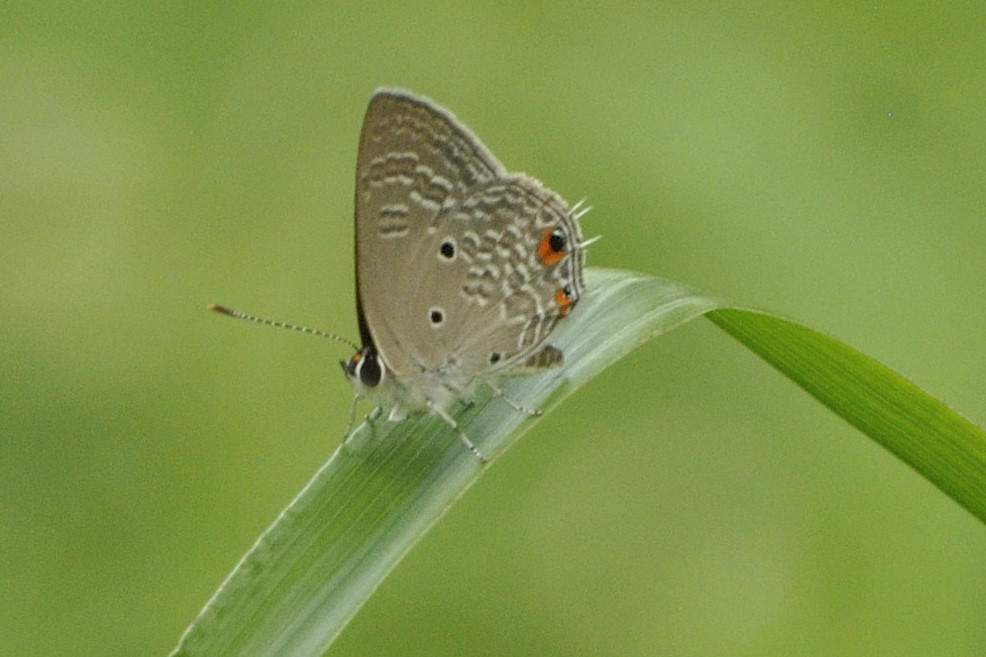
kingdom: Animalia
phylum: Arthropoda
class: Insecta
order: Lepidoptera
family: Lycaenidae
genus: Anthene
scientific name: Anthene lunulata
